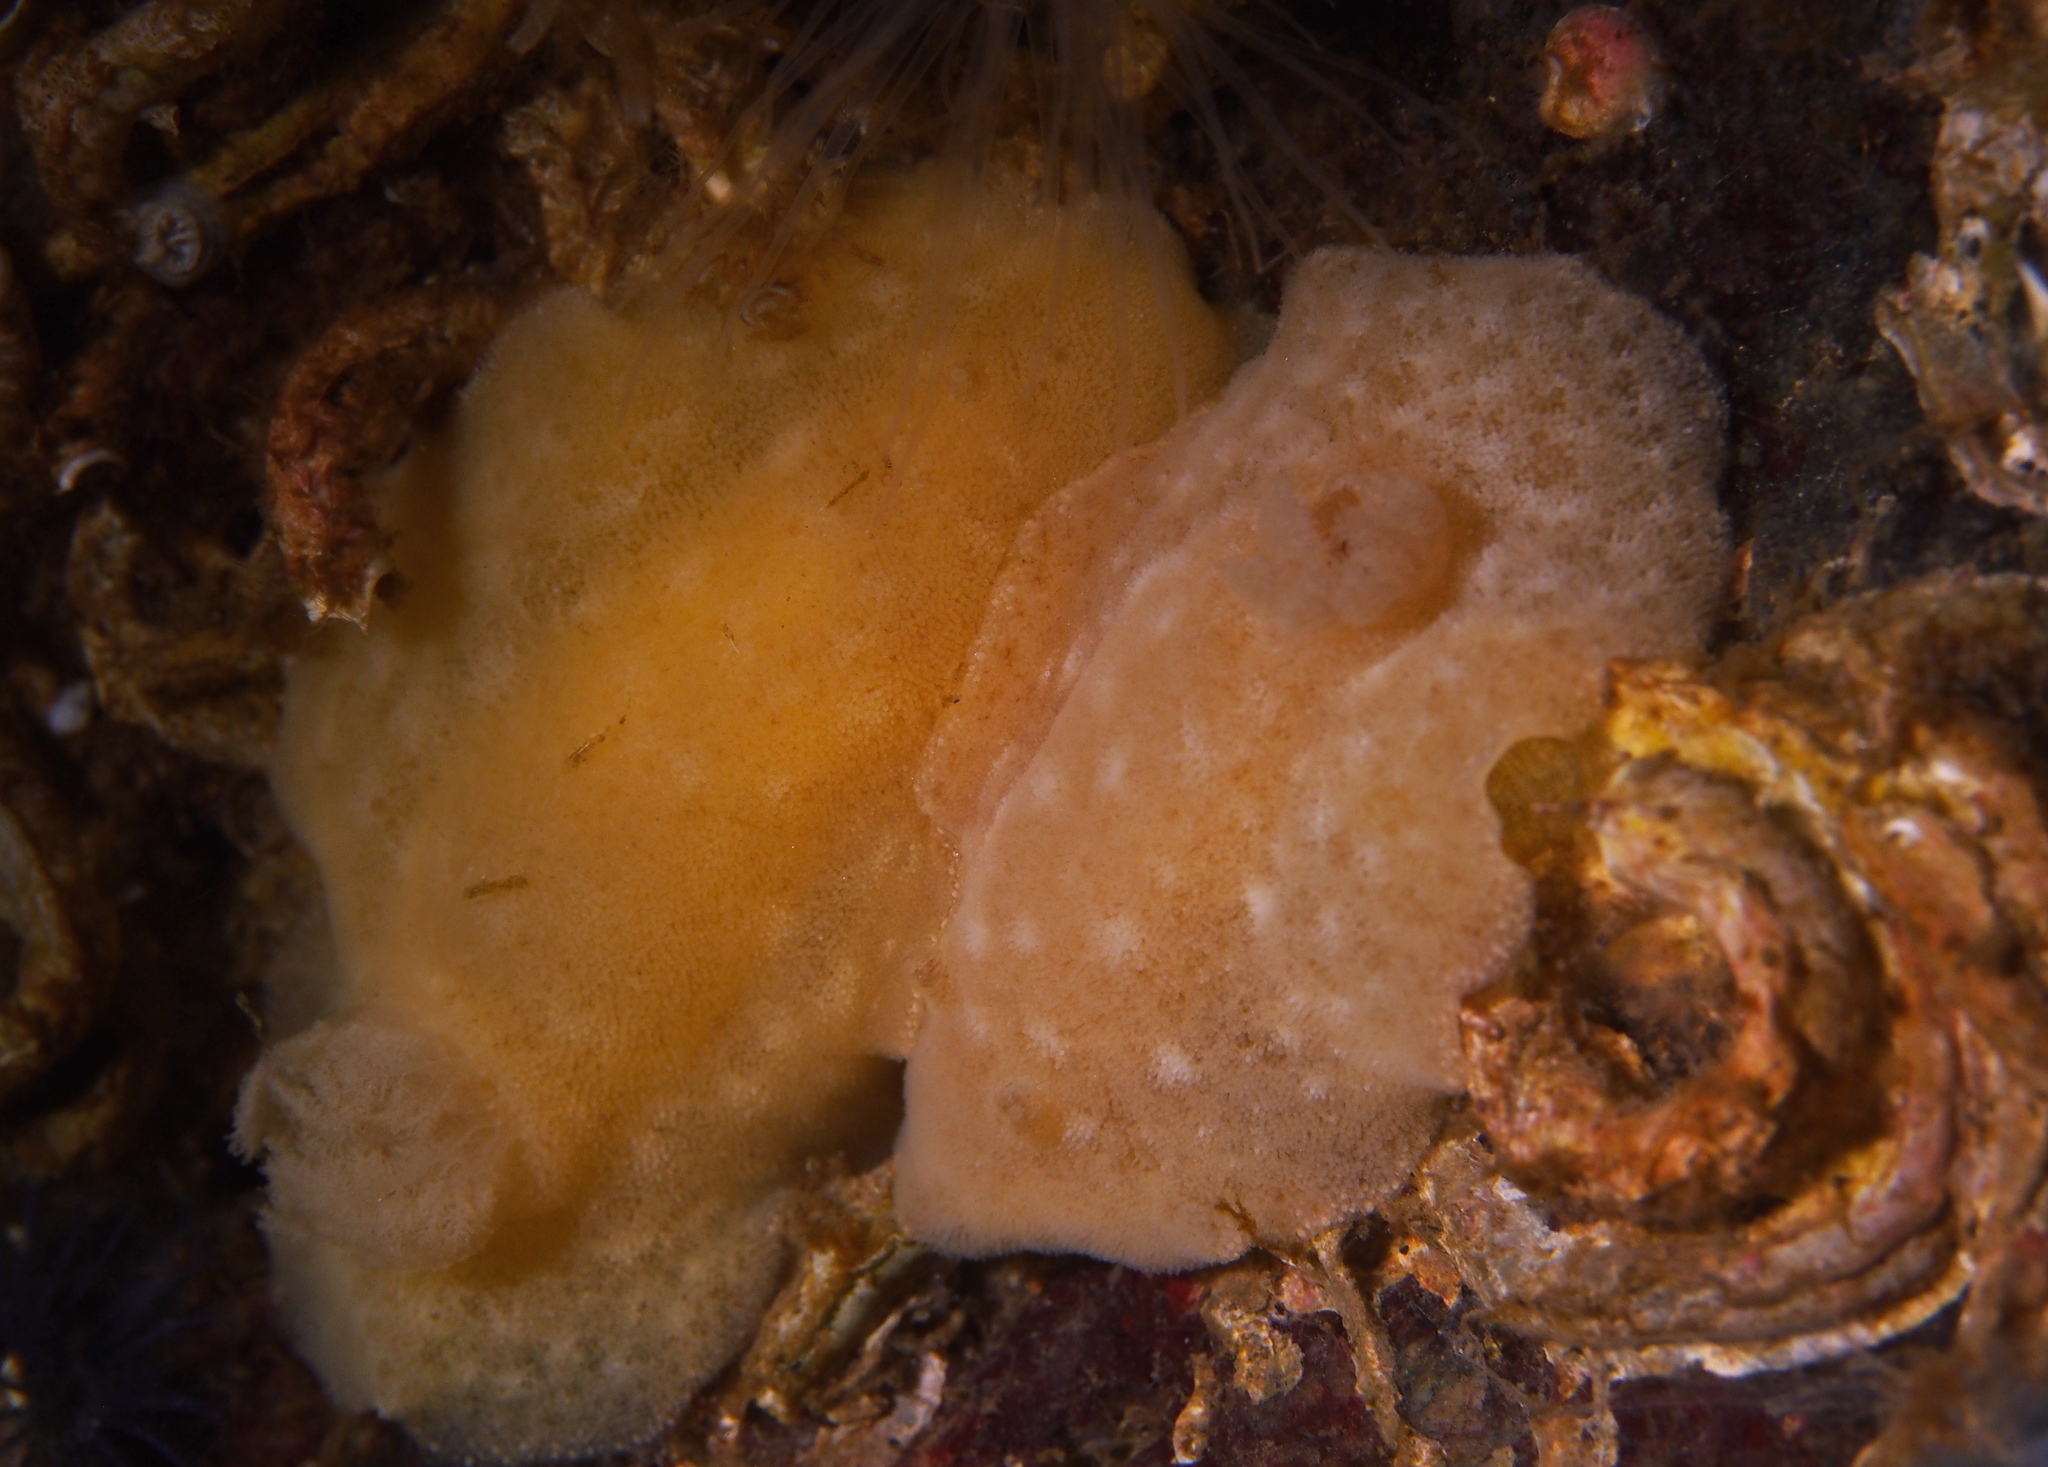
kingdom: Animalia
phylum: Mollusca
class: Gastropoda
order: Nudibranchia
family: Discodorididae
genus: Jorunna
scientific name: Jorunna tomentosa
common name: Grey sea slug
